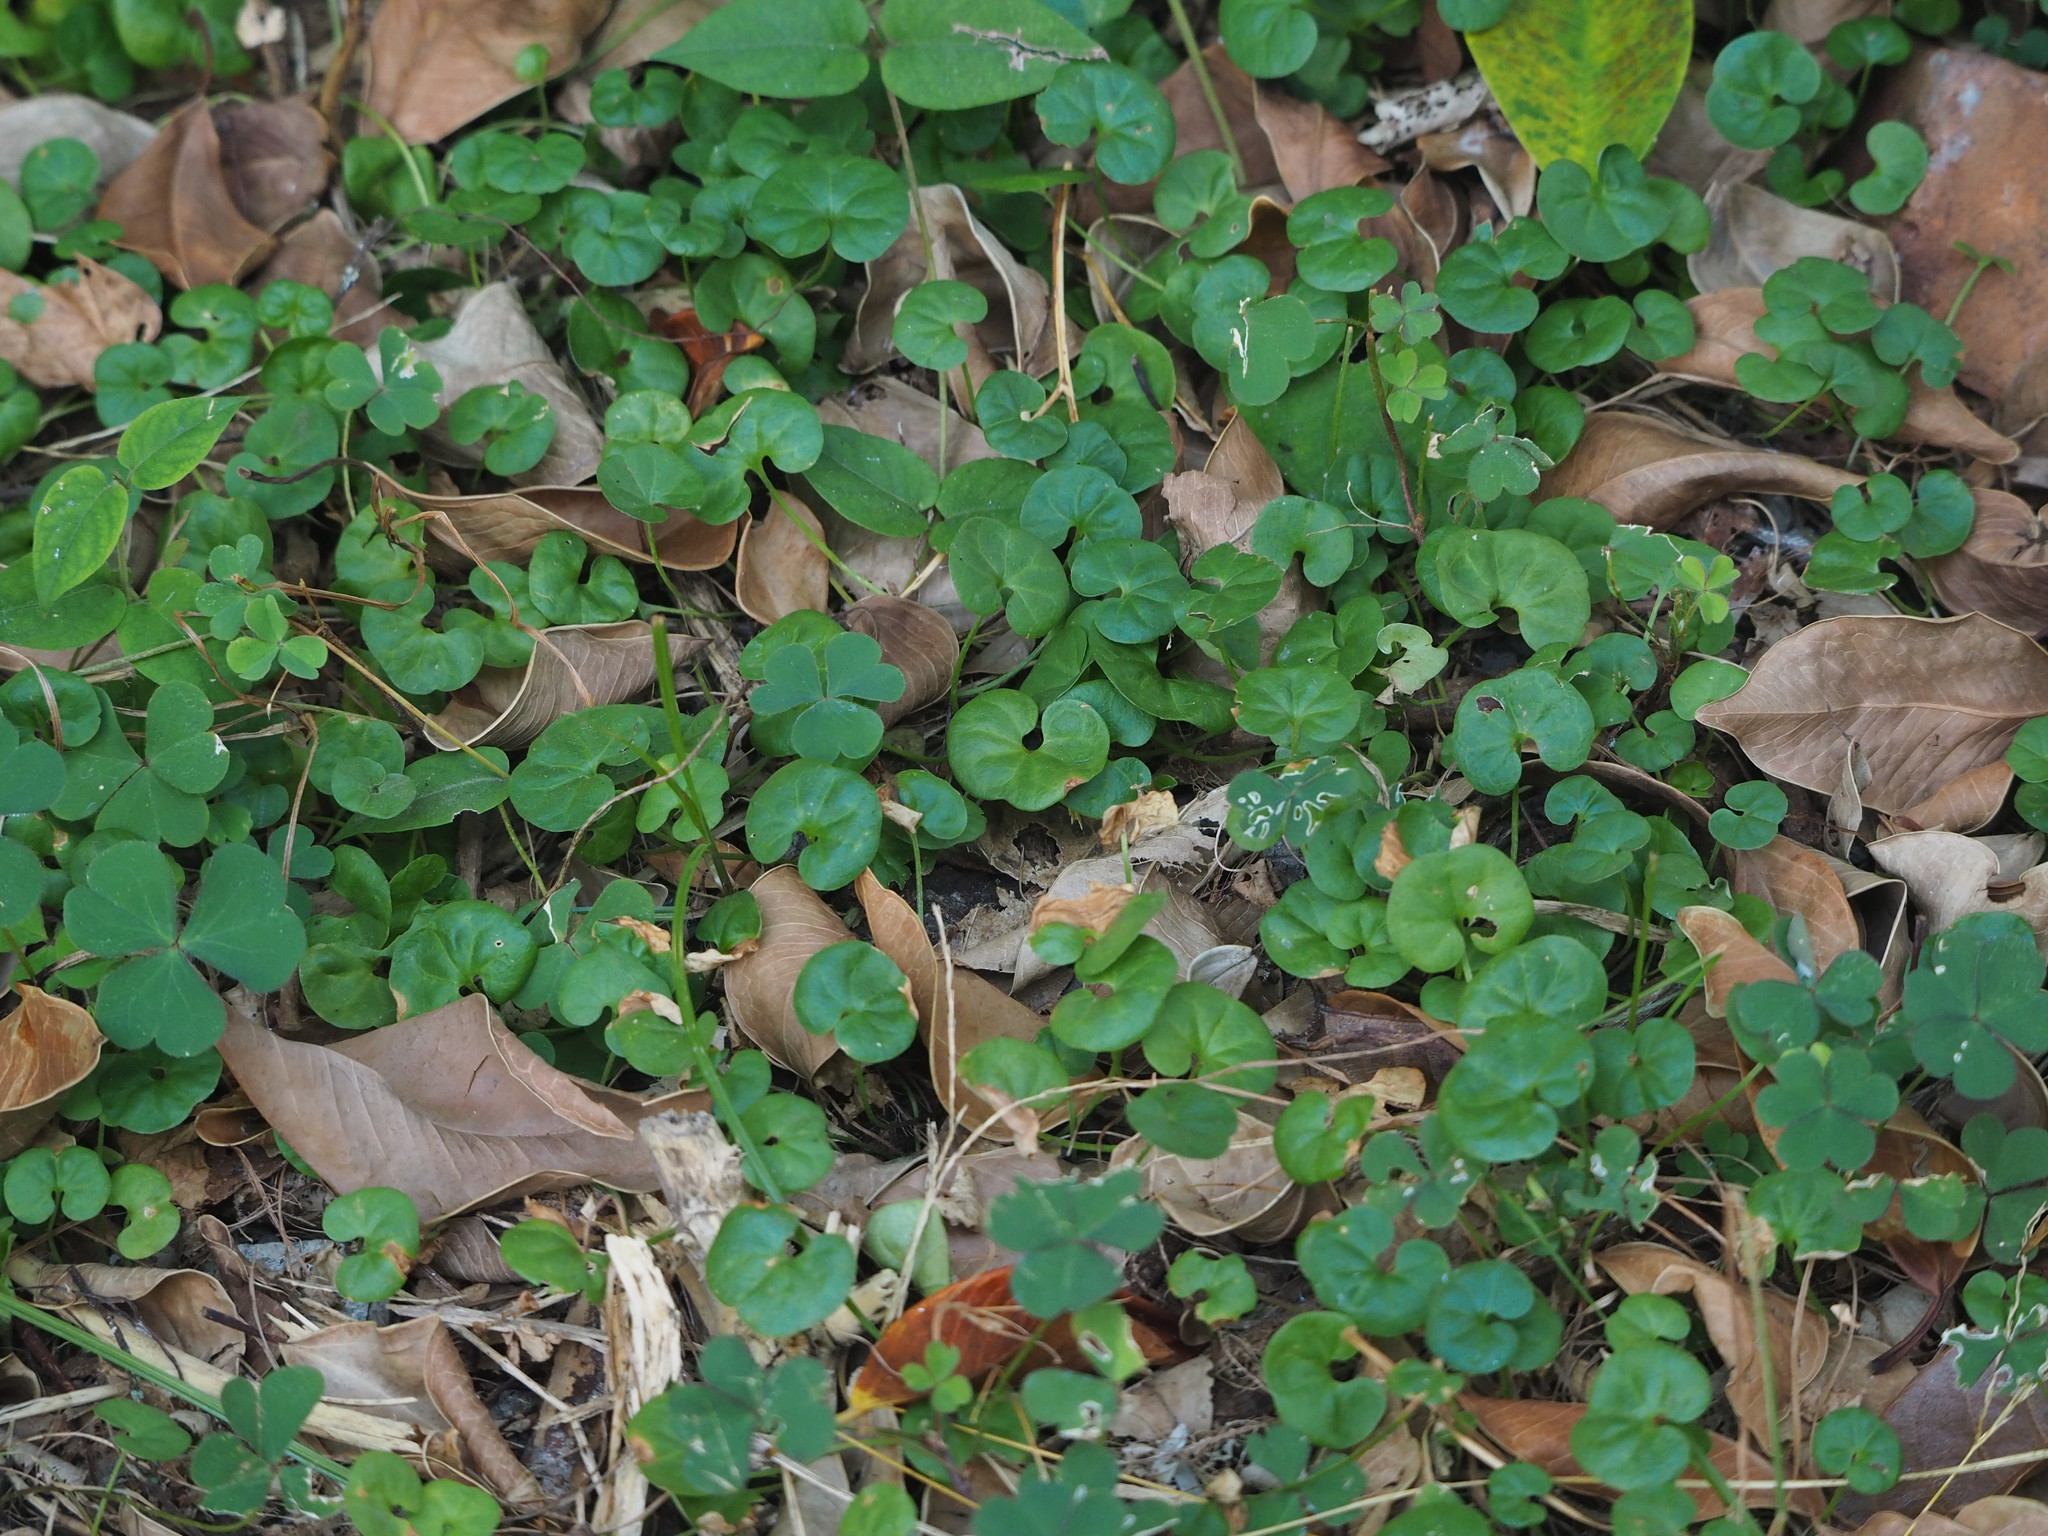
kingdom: Plantae
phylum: Tracheophyta
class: Magnoliopsida
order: Solanales
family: Convolvulaceae
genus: Dichondra
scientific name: Dichondra micrantha
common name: Kidneyweed
